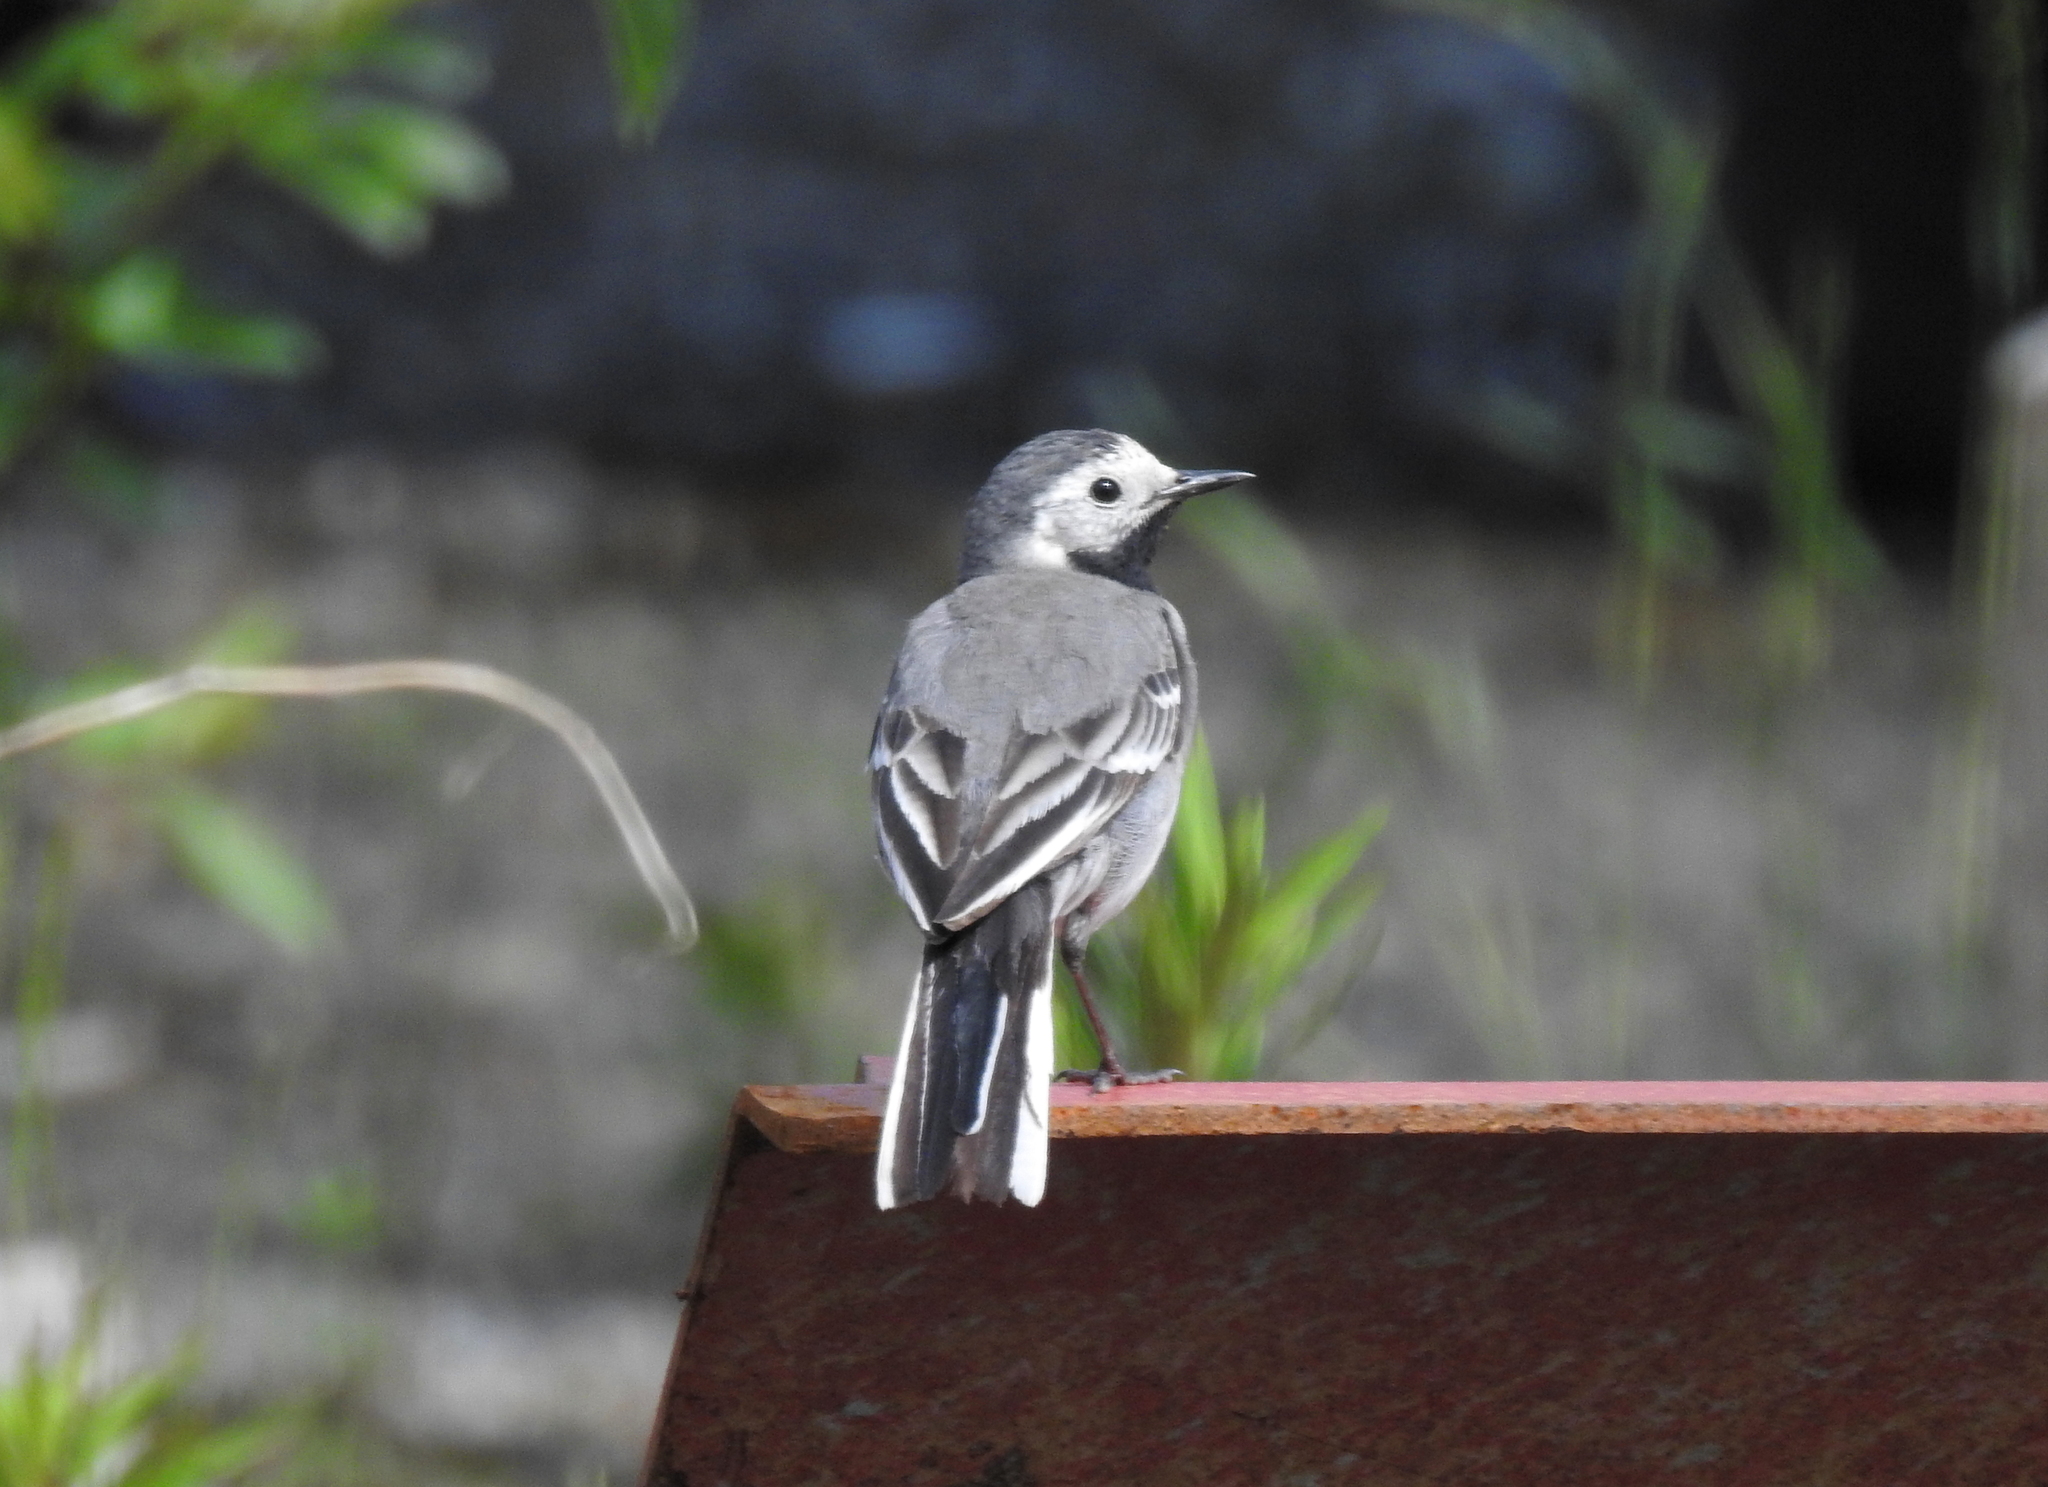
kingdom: Animalia
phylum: Chordata
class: Aves
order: Passeriformes
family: Motacillidae
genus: Motacilla
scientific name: Motacilla alba
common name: White wagtail
